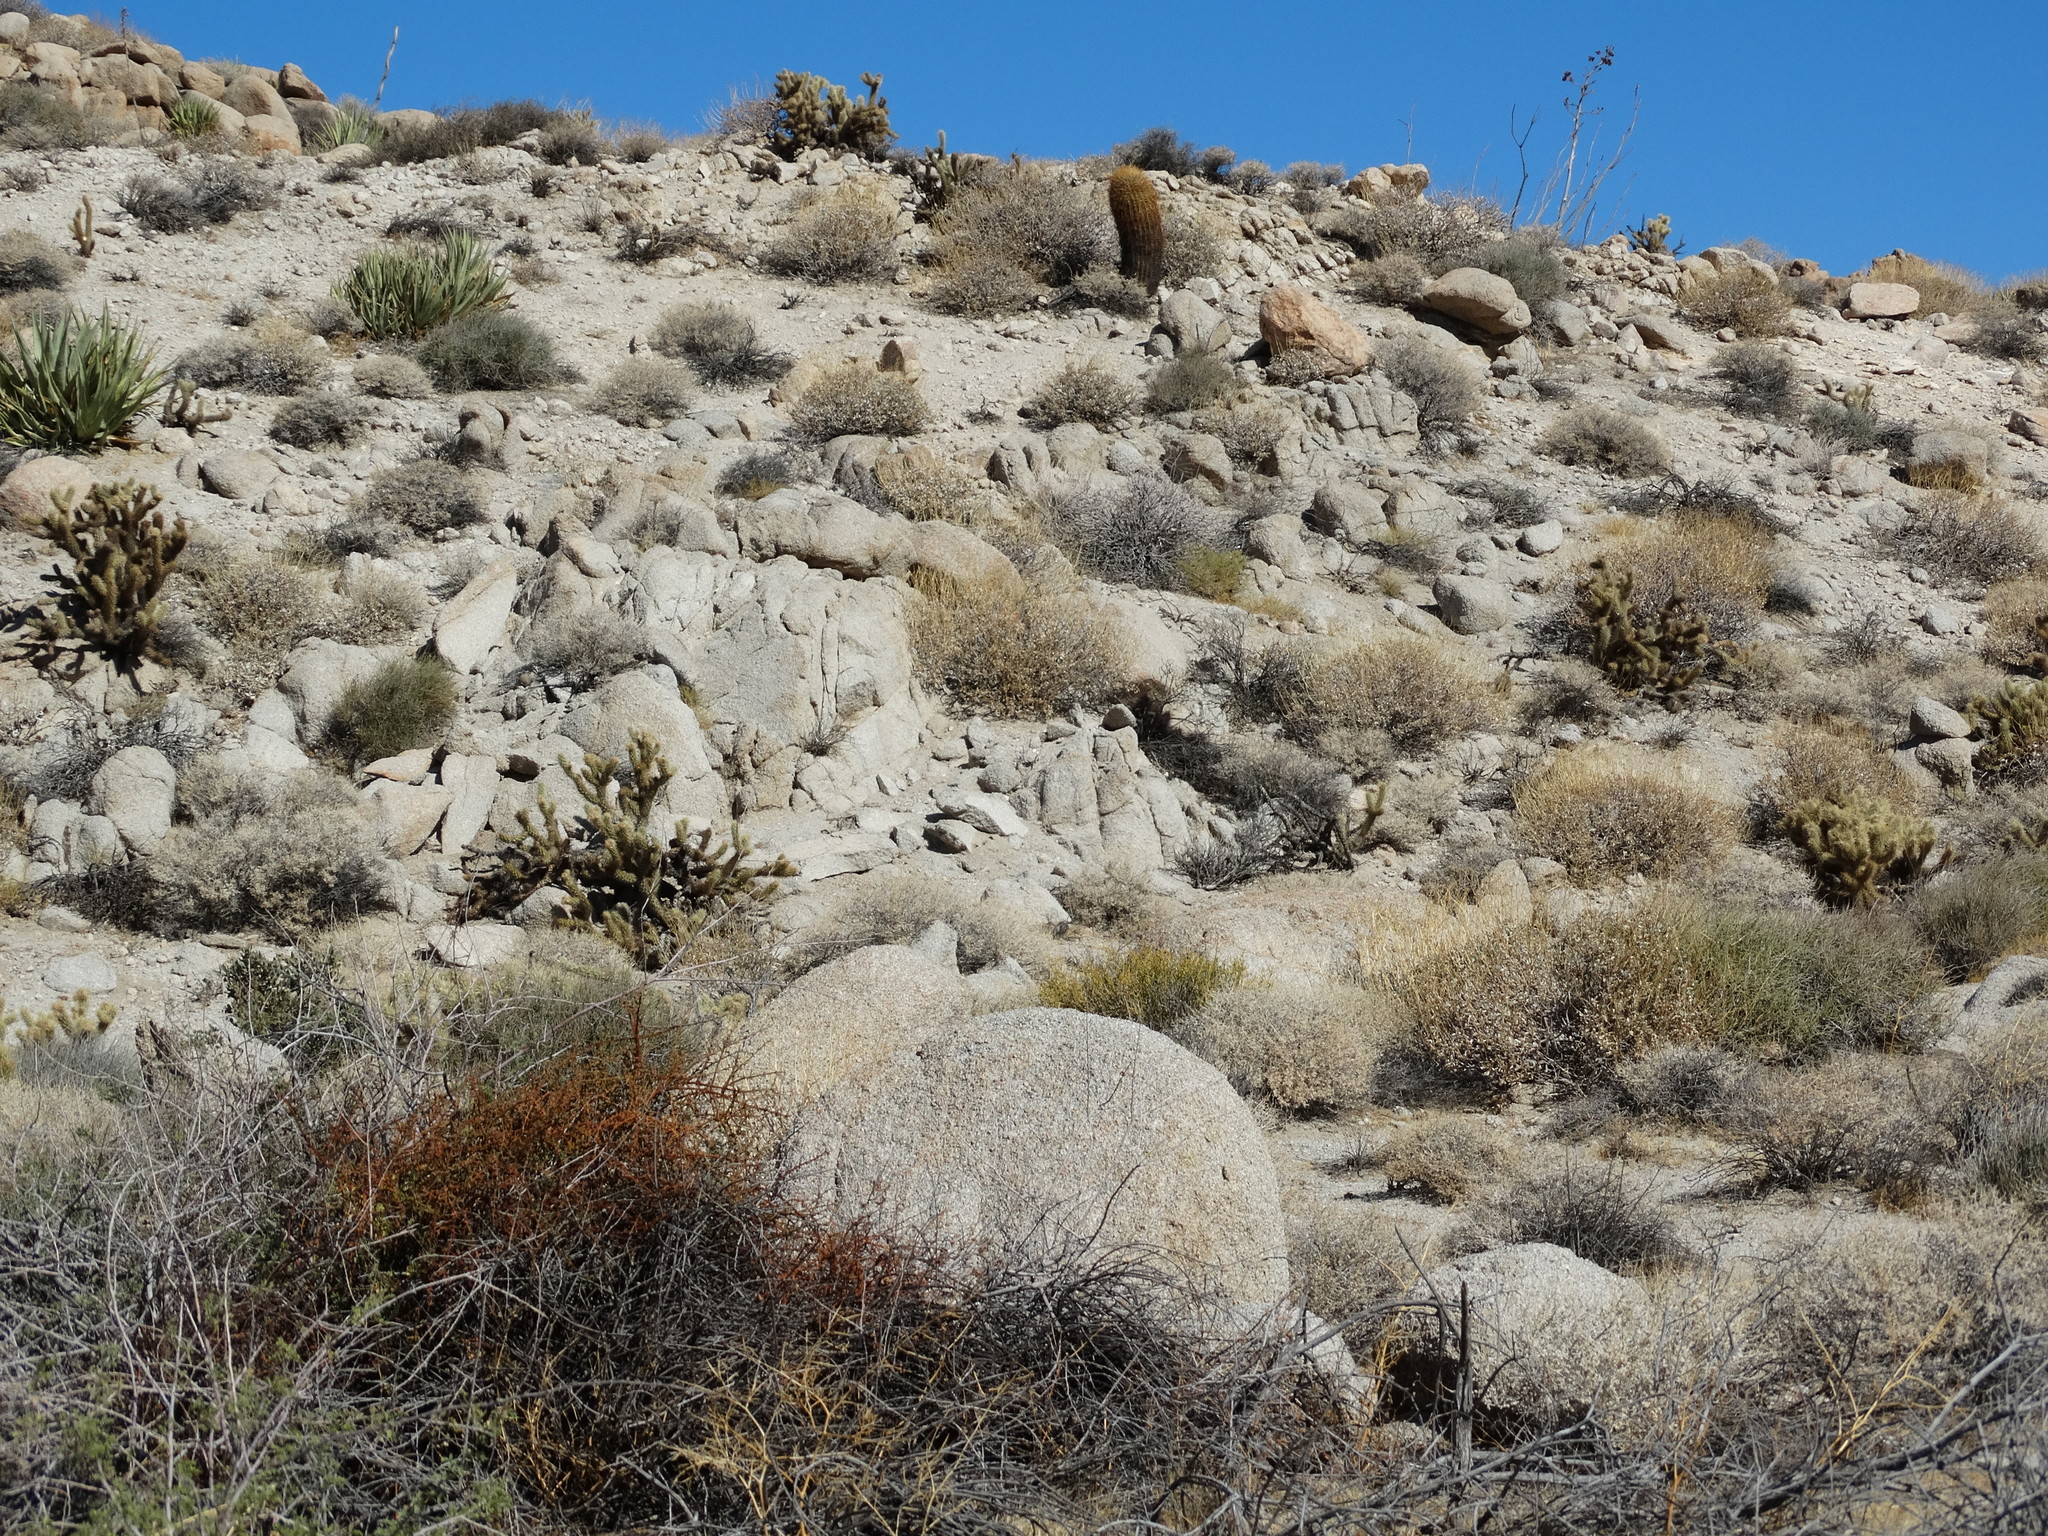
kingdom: Plantae
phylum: Tracheophyta
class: Magnoliopsida
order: Caryophyllales
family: Cactaceae
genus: Ferocactus
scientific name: Ferocactus cylindraceus
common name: California barrel cactus
